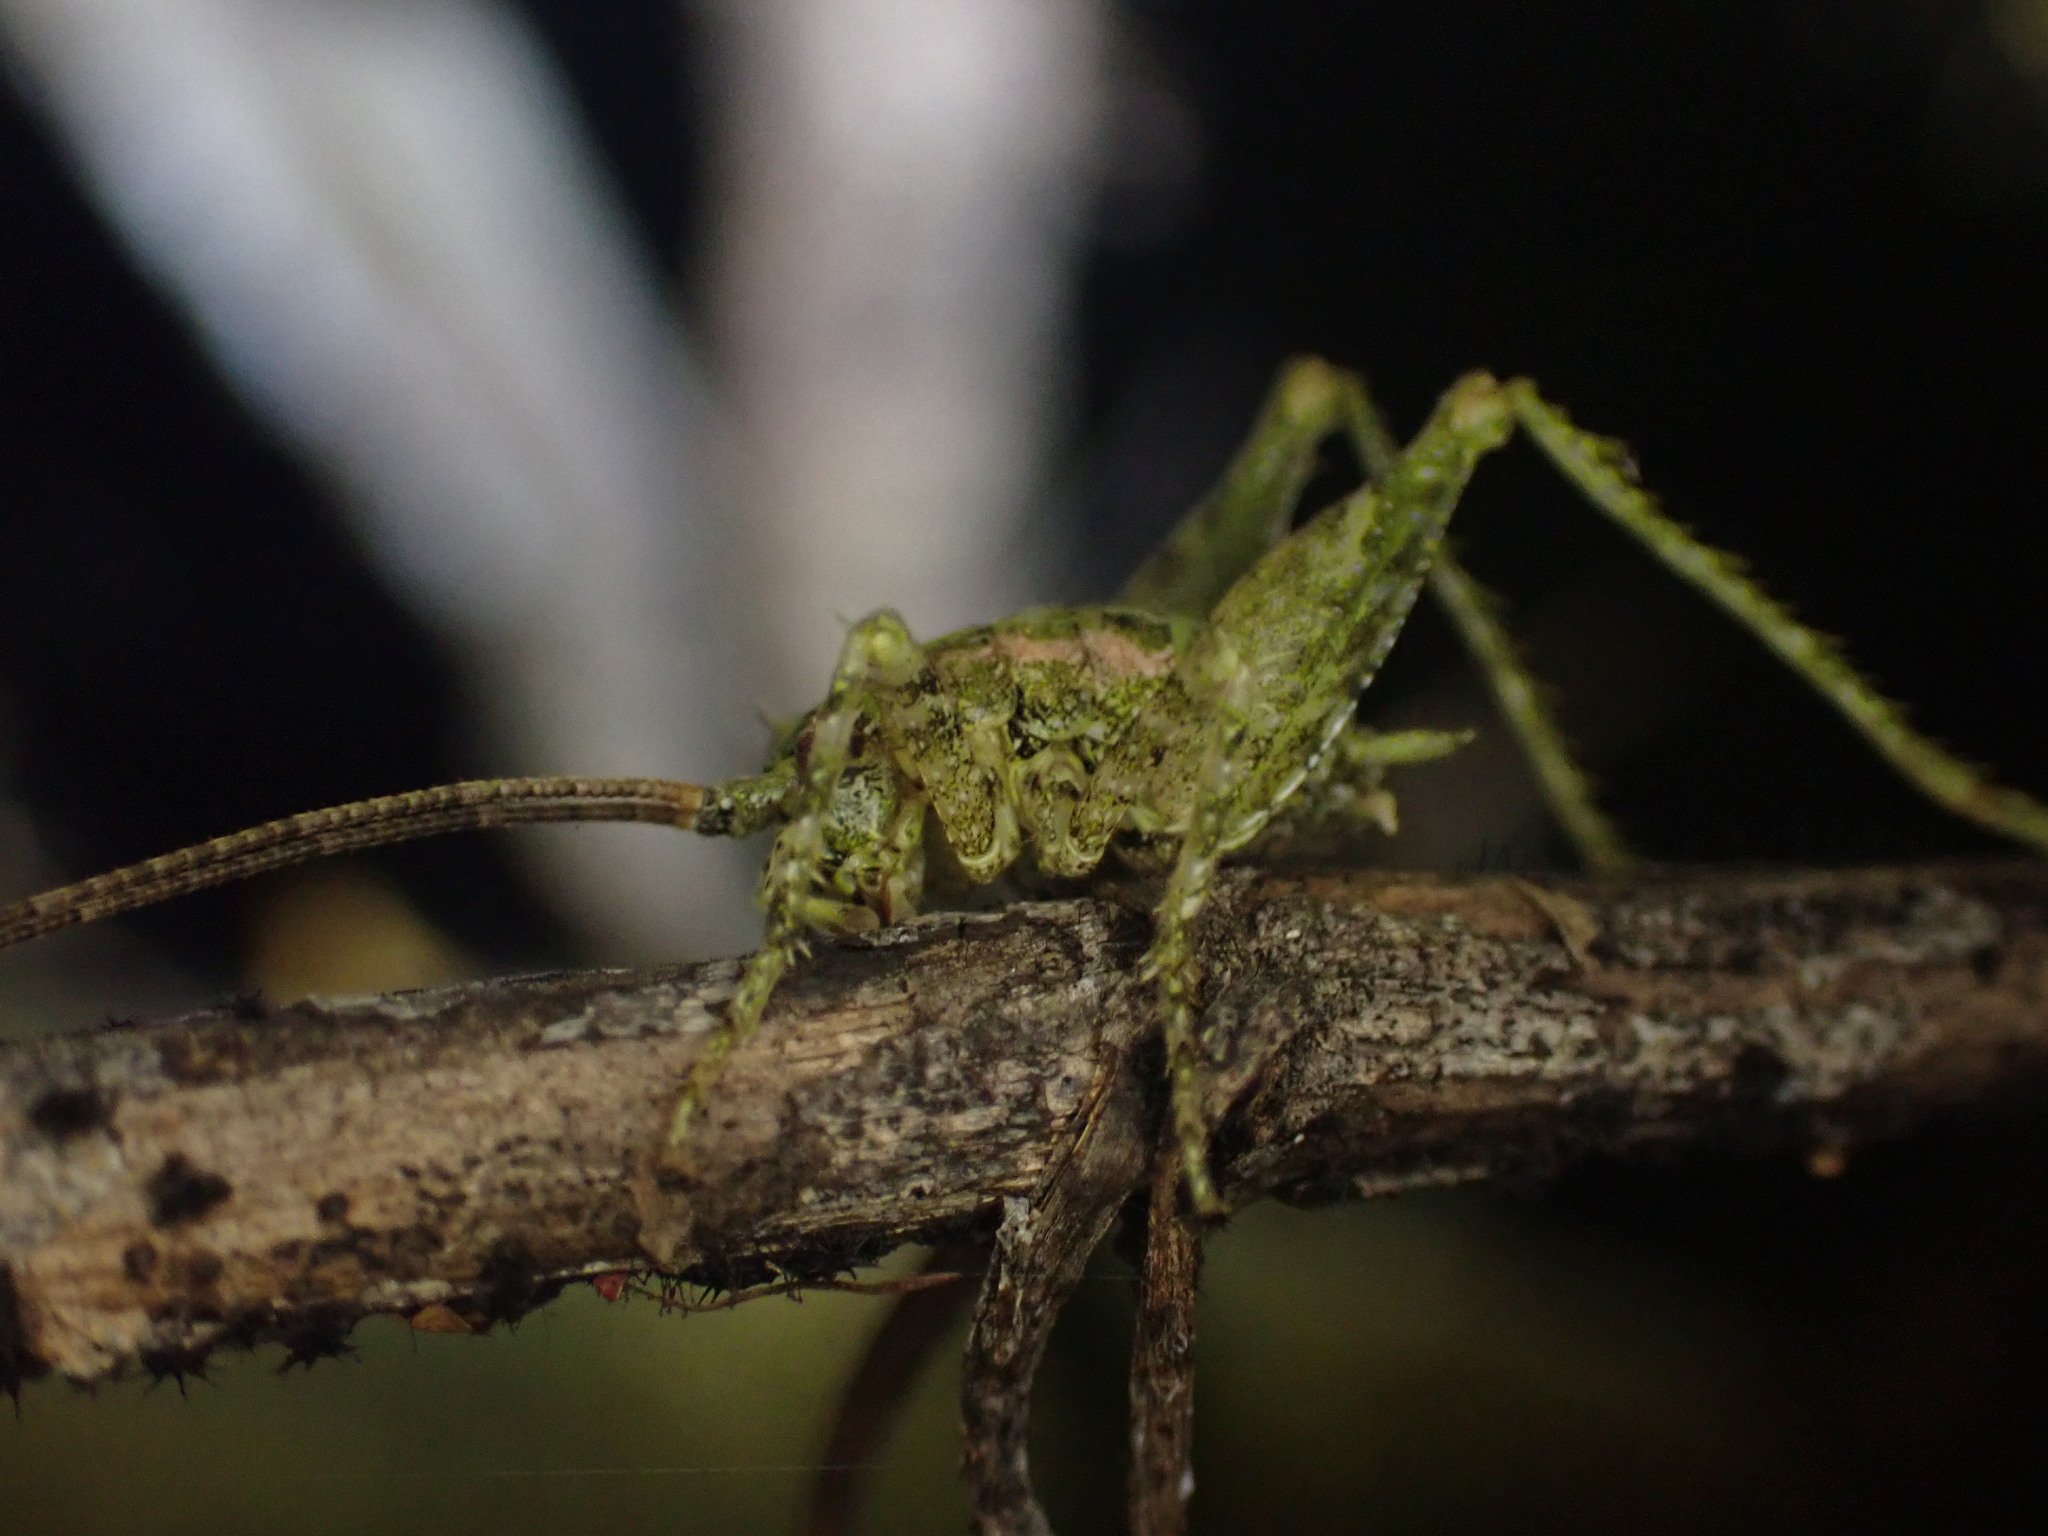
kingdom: Animalia
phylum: Arthropoda
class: Insecta
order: Orthoptera
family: Rhaphidophoridae
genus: Maotoweta
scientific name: Maotoweta virescens
